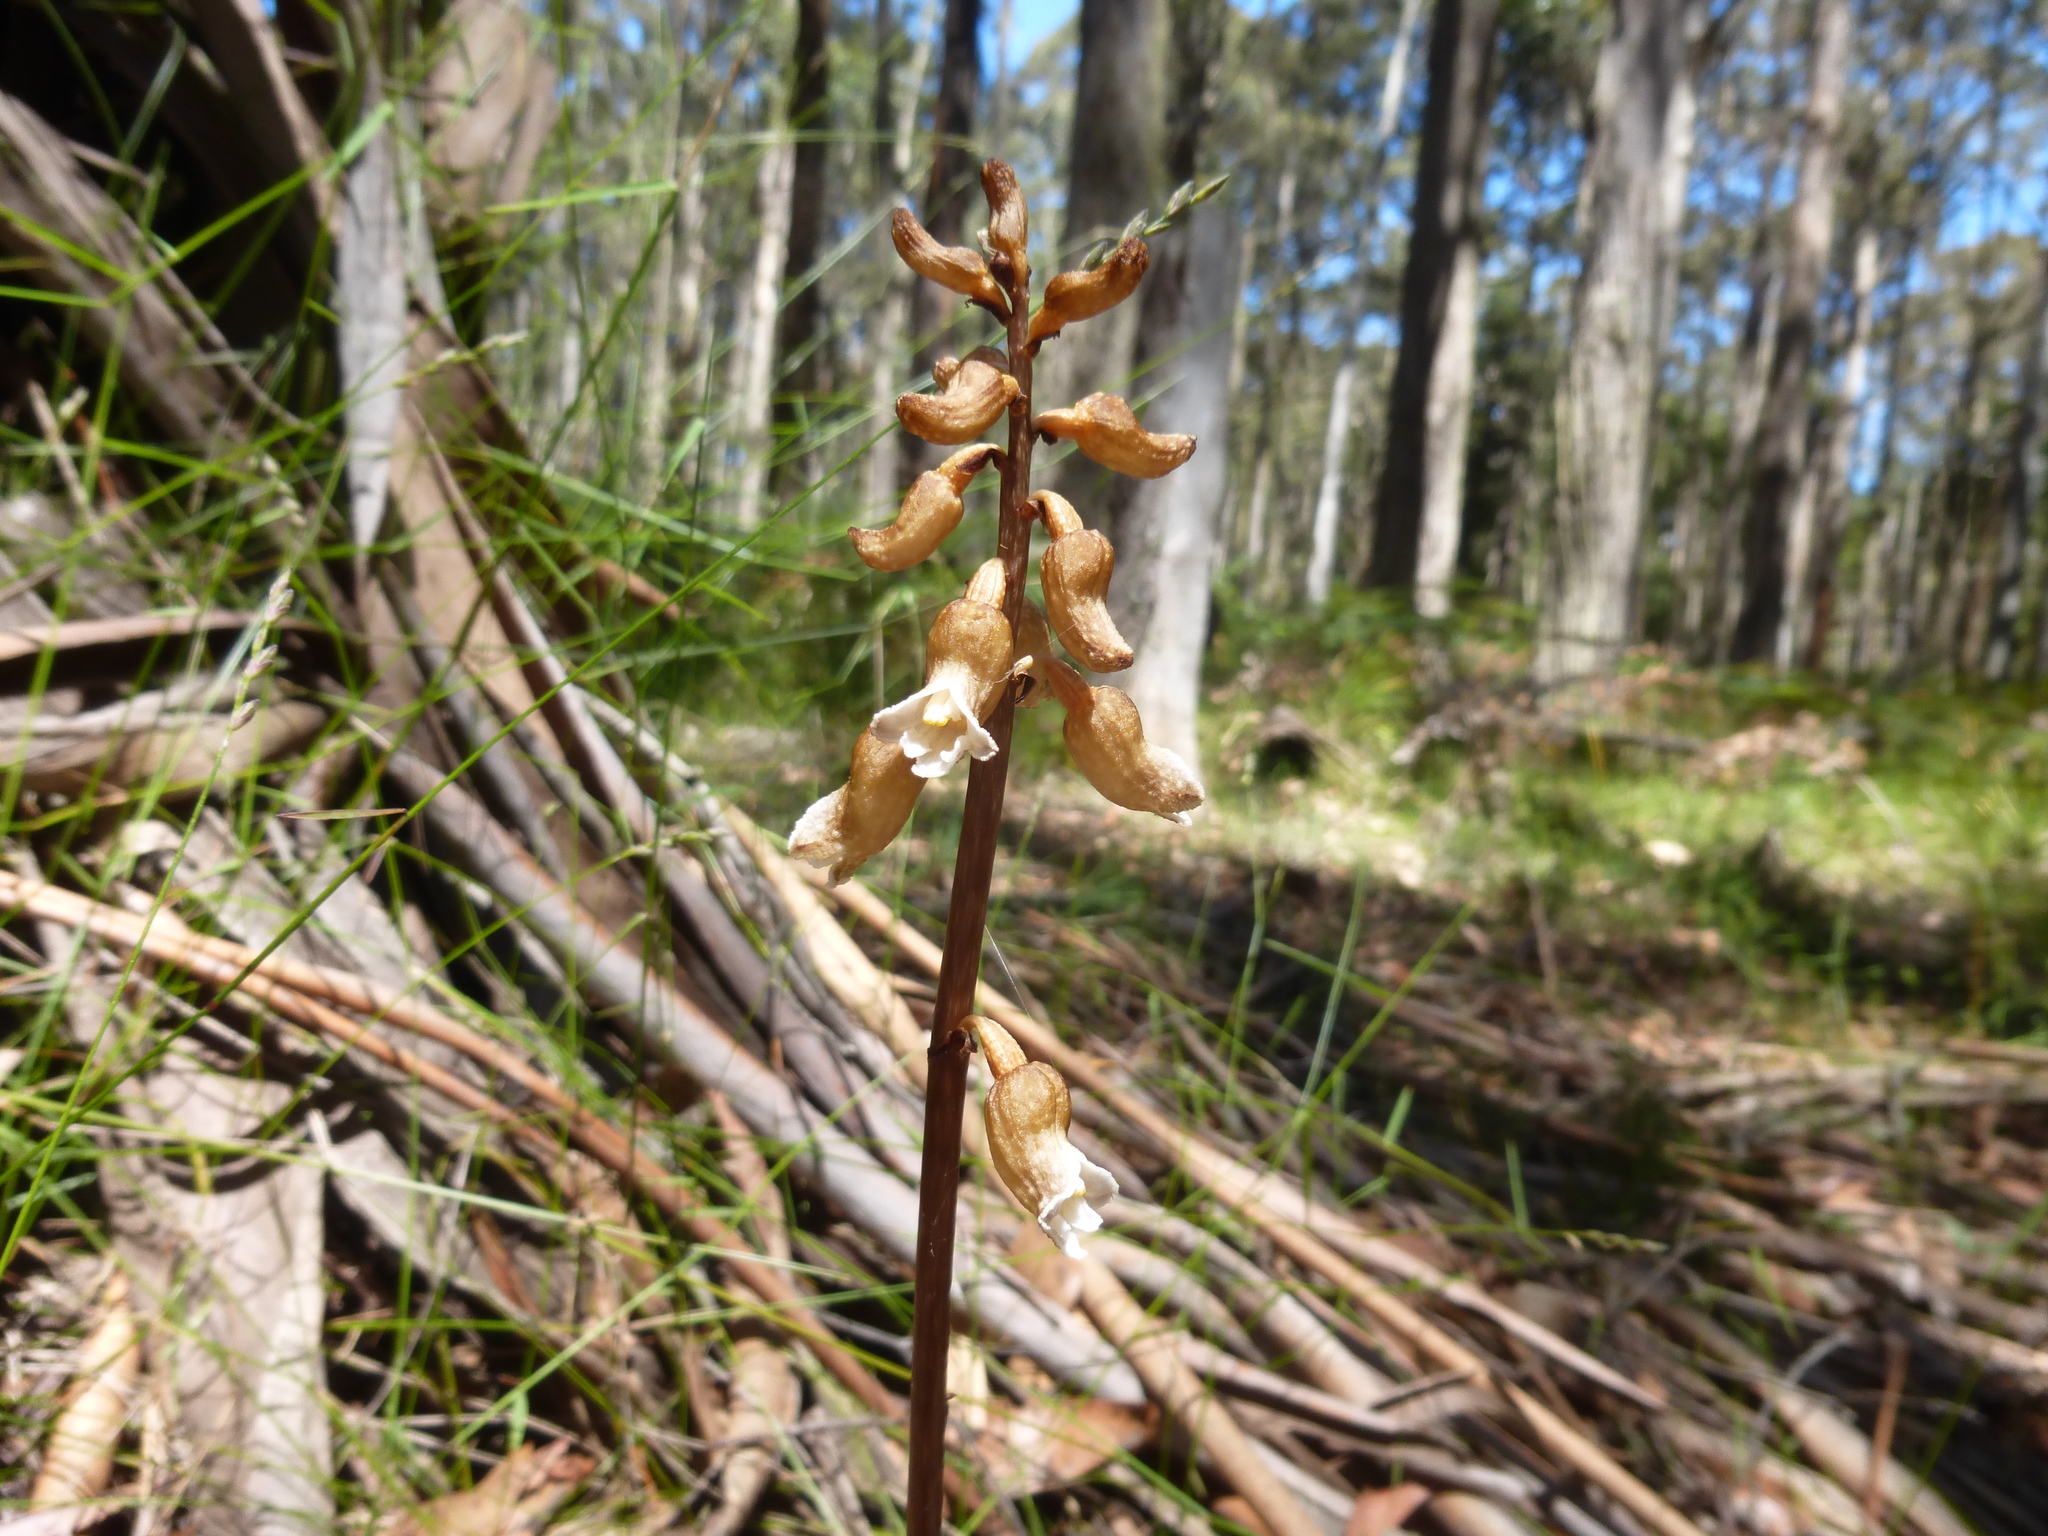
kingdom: Plantae
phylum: Tracheophyta
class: Liliopsida
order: Asparagales
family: Orchidaceae
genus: Gastrodia
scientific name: Gastrodia procera
